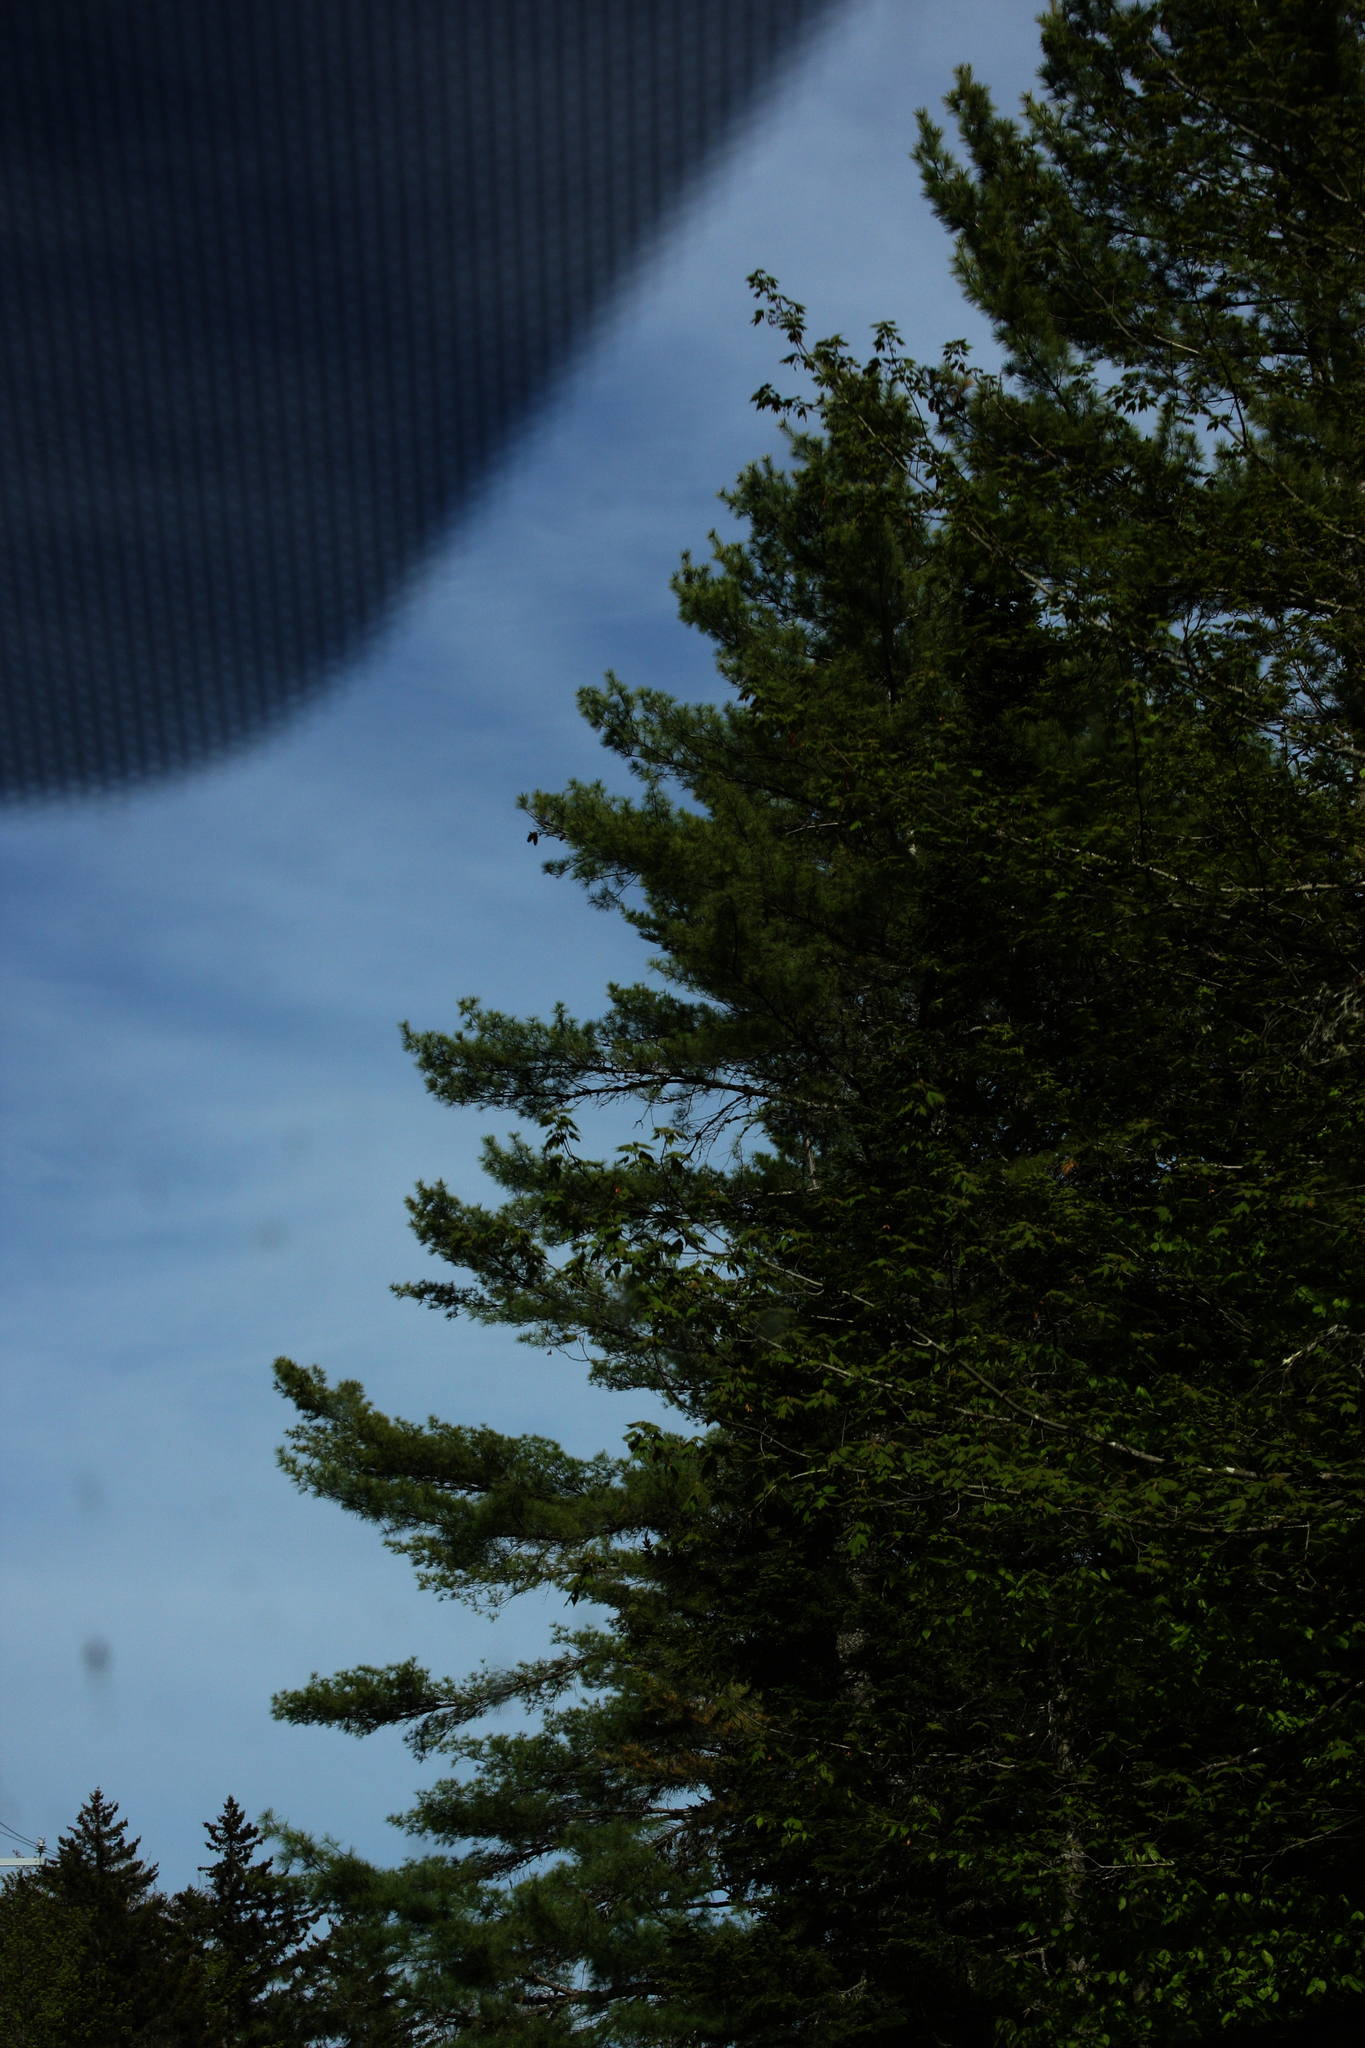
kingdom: Plantae
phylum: Tracheophyta
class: Pinopsida
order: Pinales
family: Pinaceae
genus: Pinus
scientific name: Pinus strobus
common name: Weymouth pine
